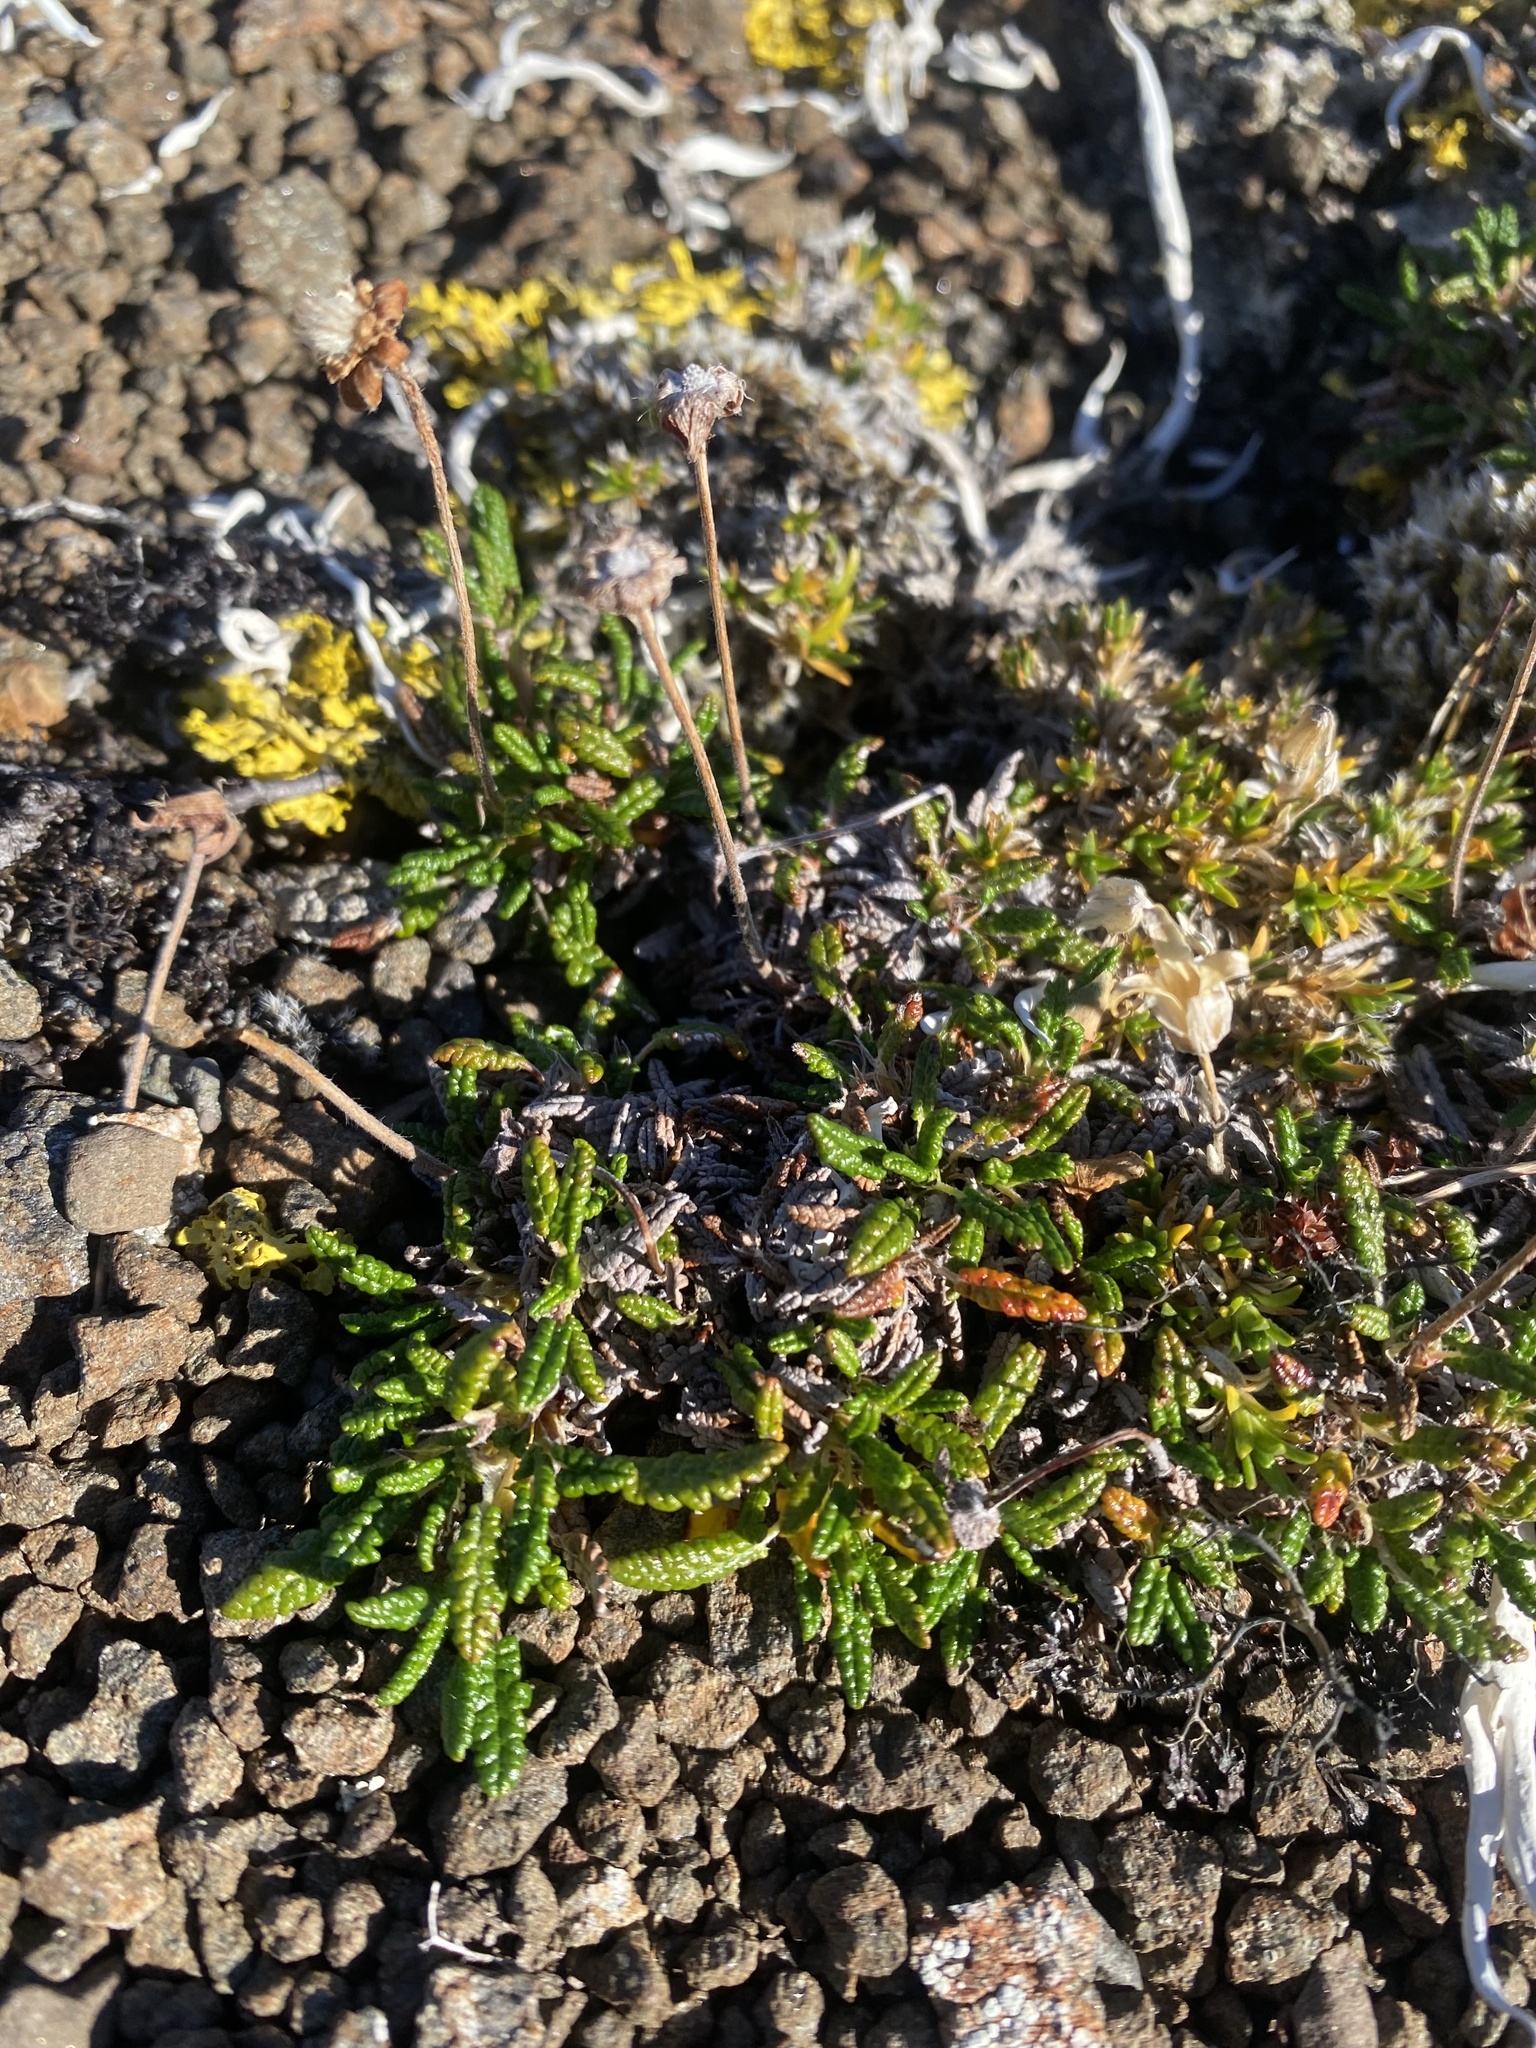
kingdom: Plantae
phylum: Tracheophyta
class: Magnoliopsida
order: Rosales
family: Rosaceae
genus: Dryas
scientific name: Dryas octopetala
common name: Eight-petal mountain-avens
